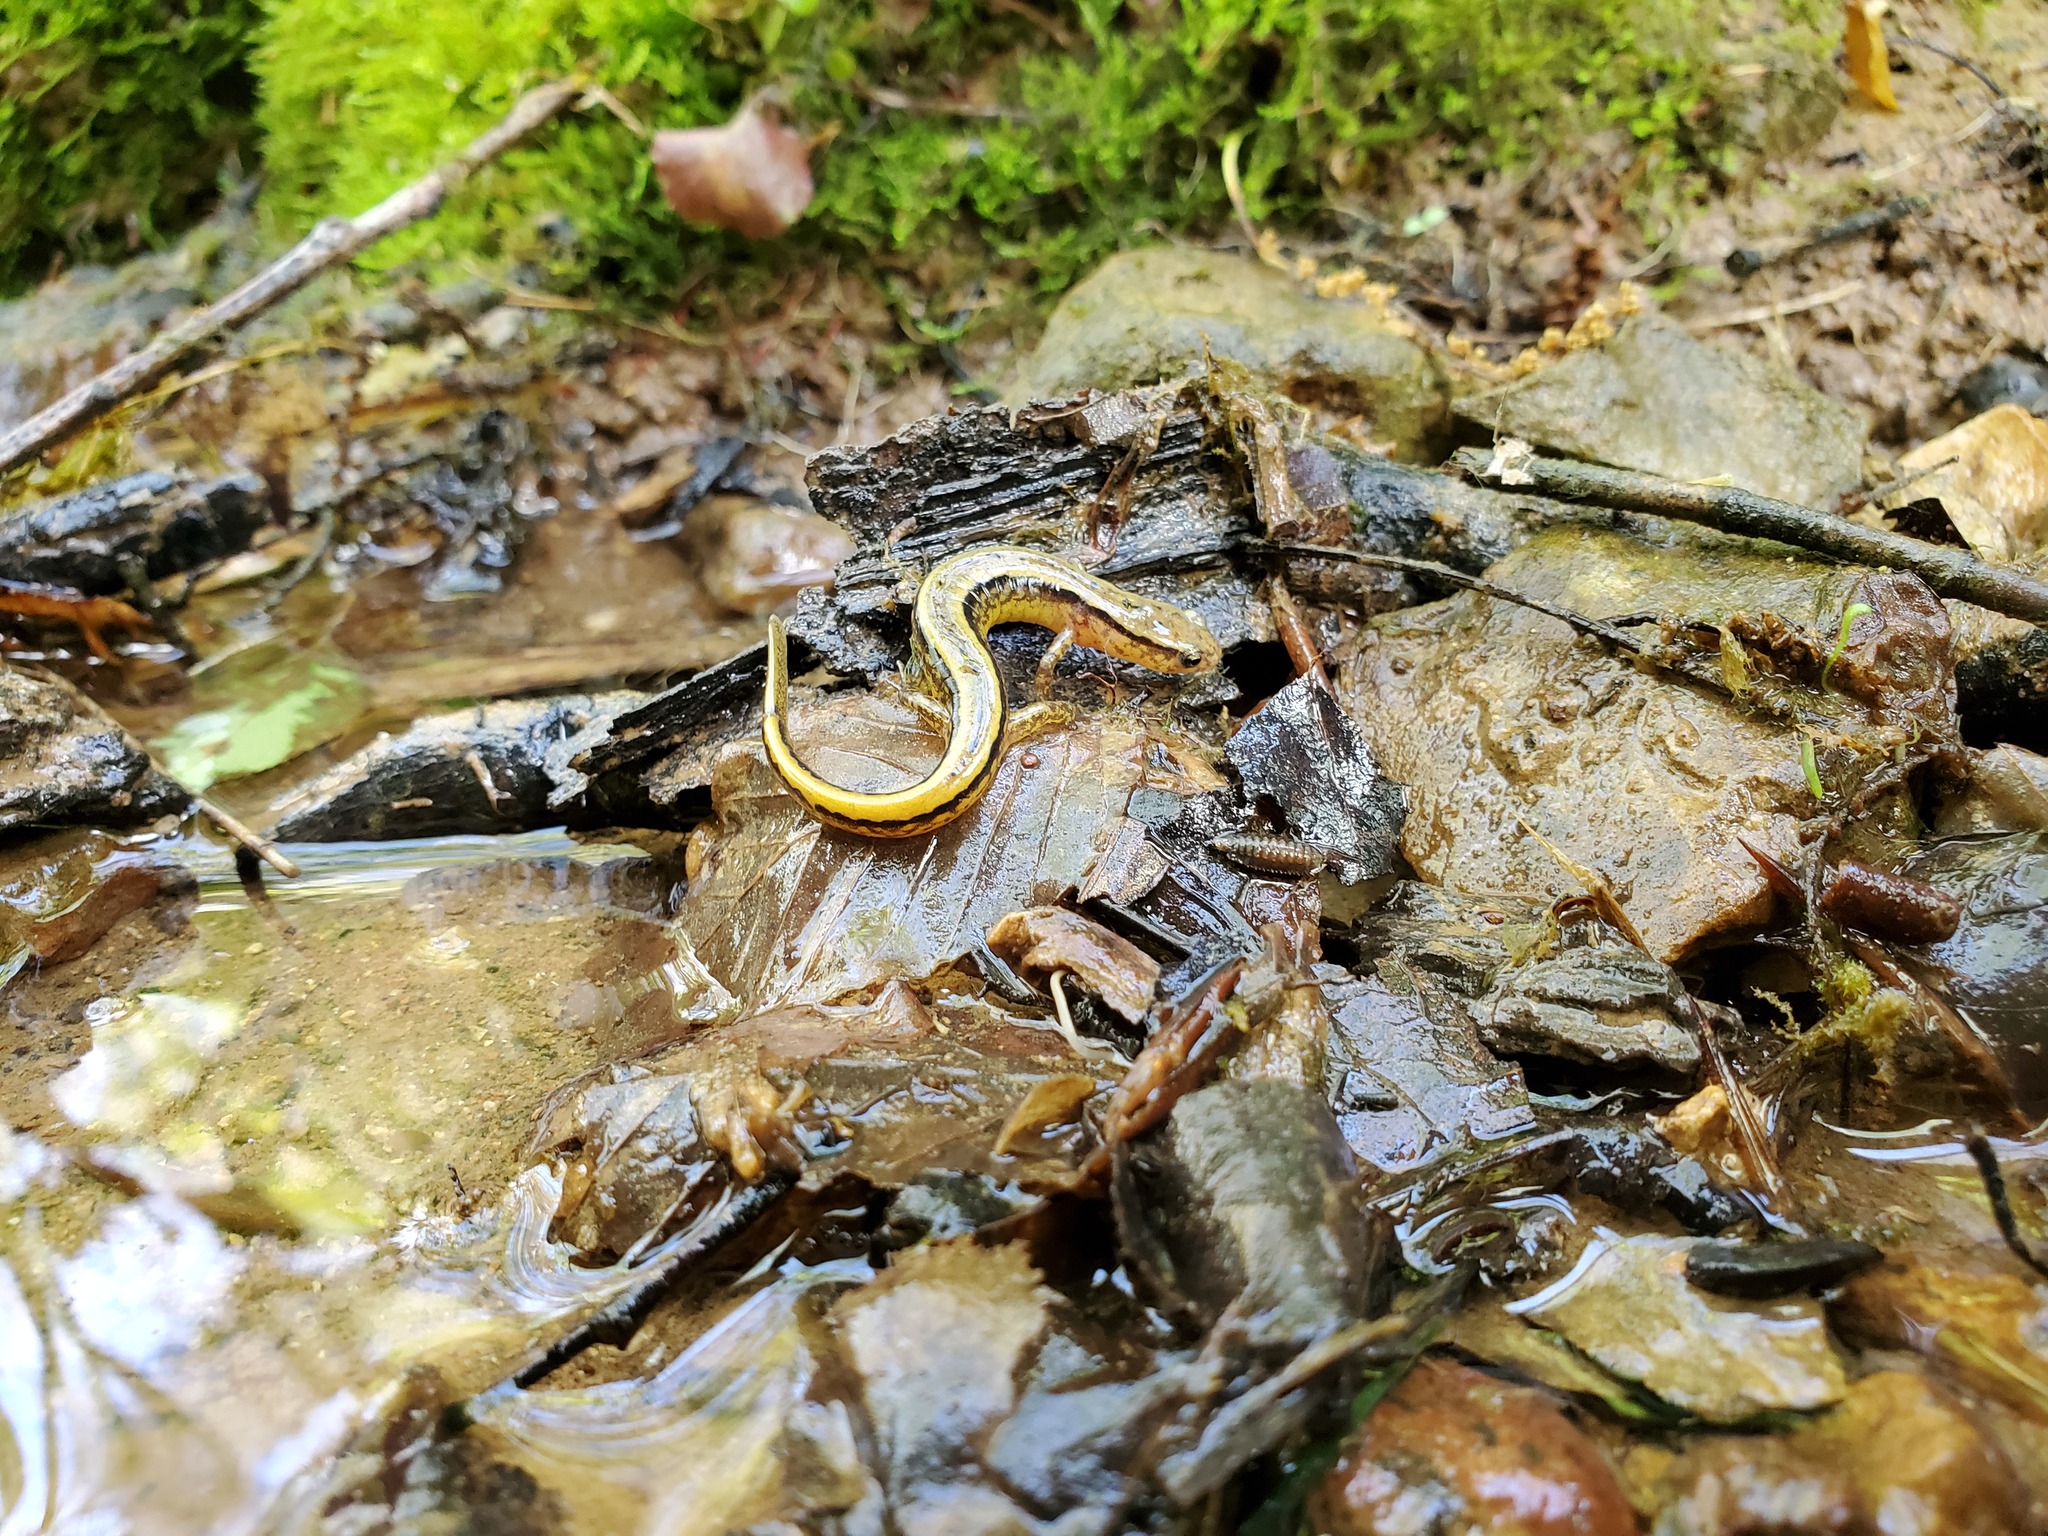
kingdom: Animalia
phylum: Chordata
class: Amphibia
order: Caudata
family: Plethodontidae
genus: Eurycea
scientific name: Eurycea cirrigera
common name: Southern two-lined salamander
